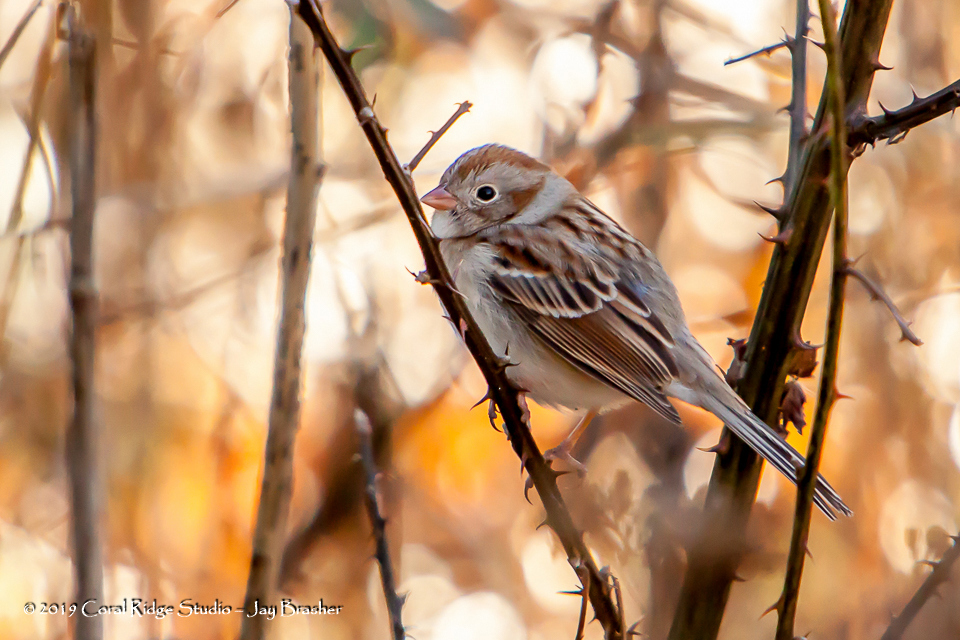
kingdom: Animalia
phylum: Chordata
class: Aves
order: Passeriformes
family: Passerellidae
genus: Spizella
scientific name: Spizella pusilla
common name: Field sparrow
